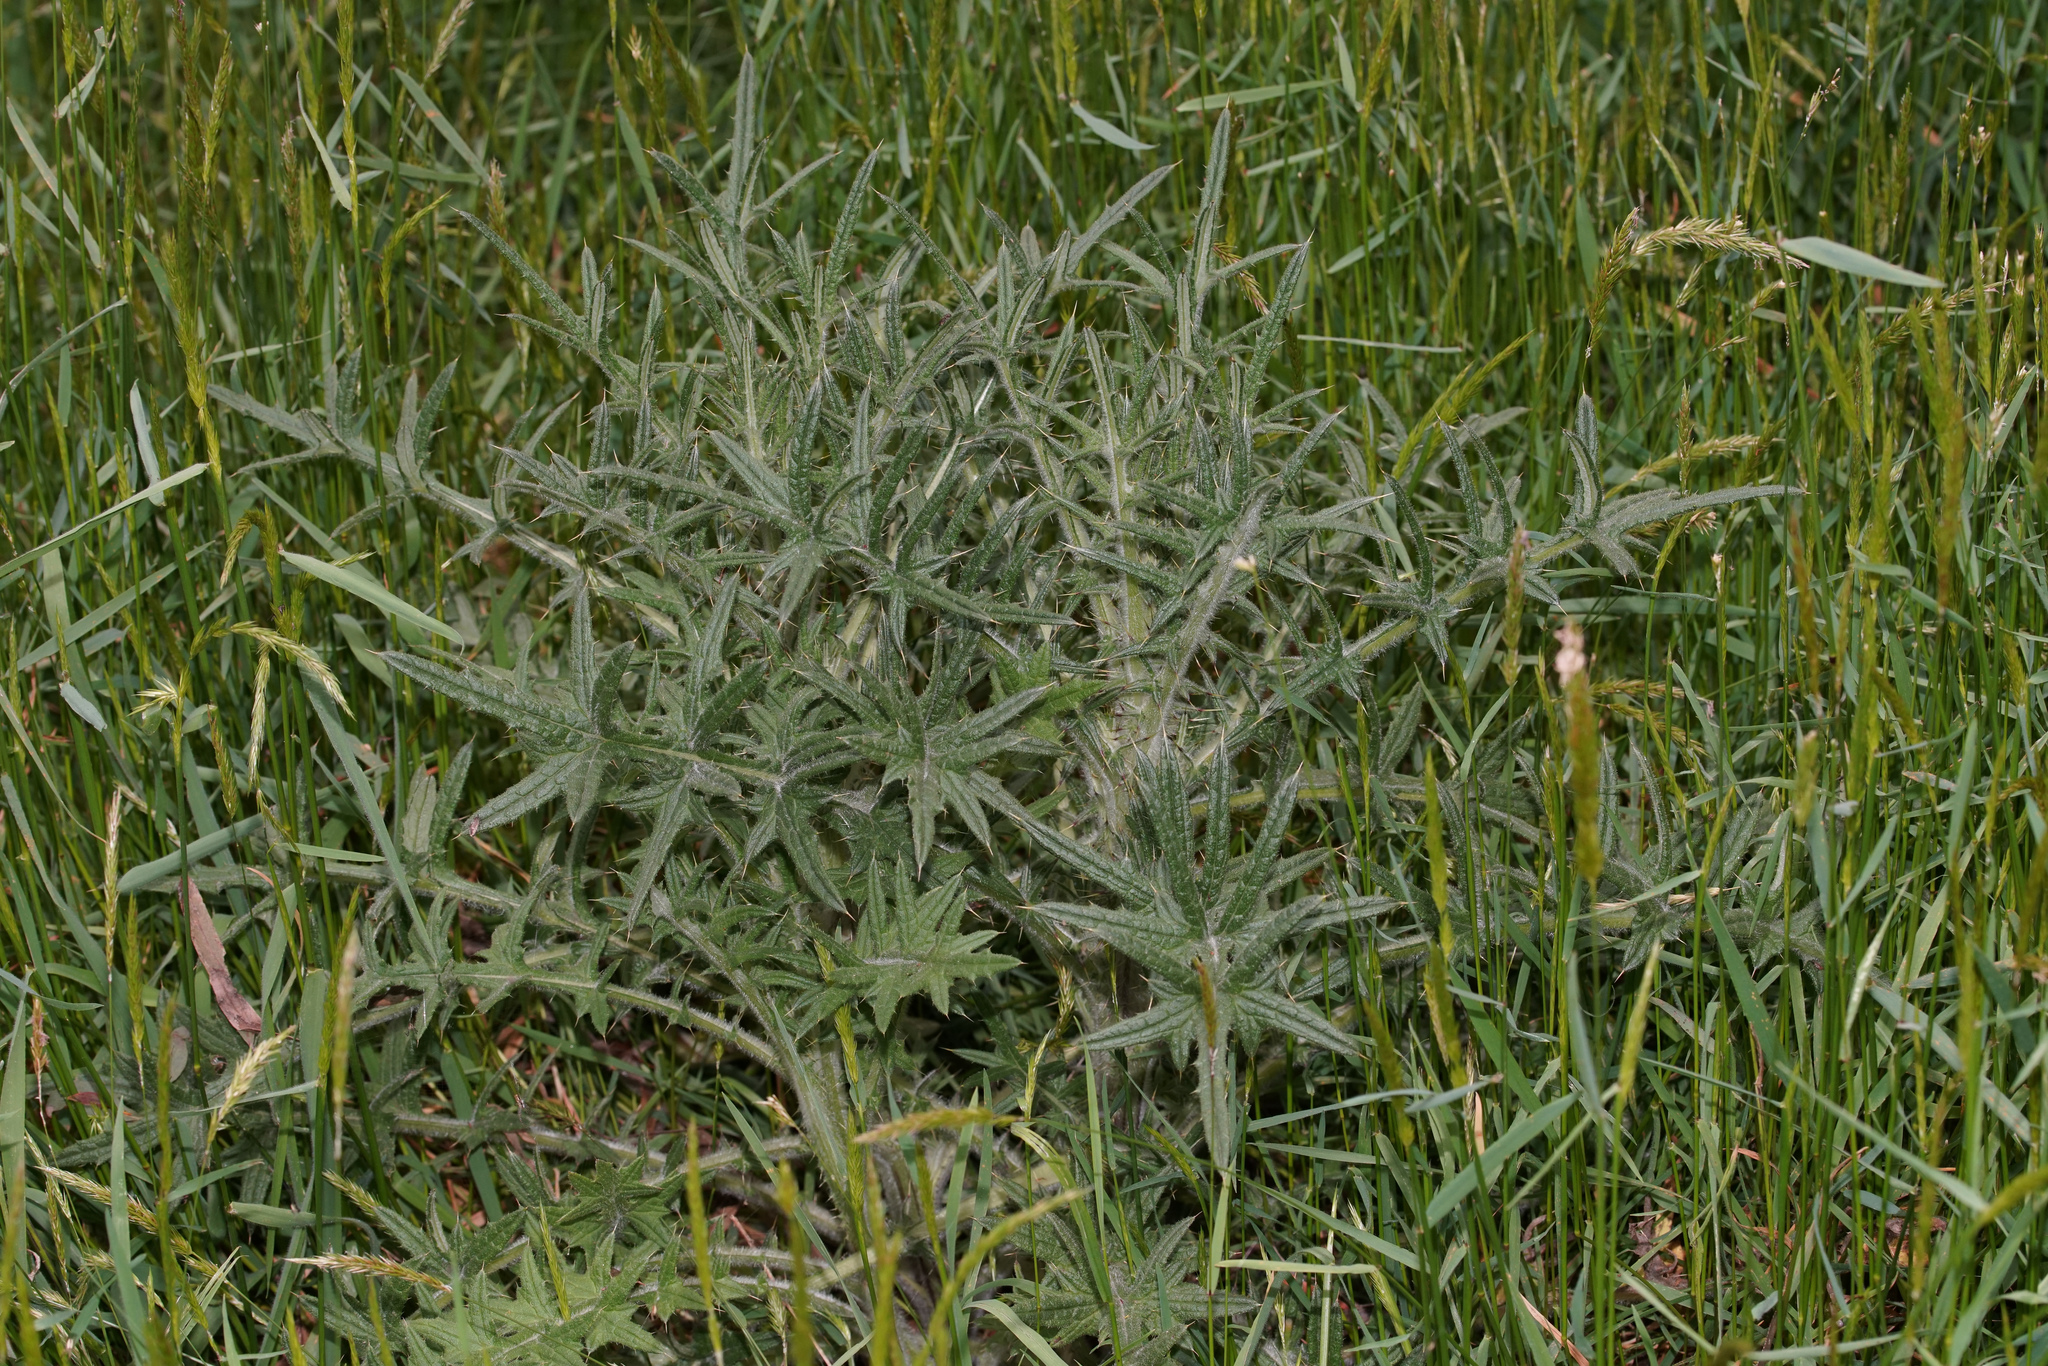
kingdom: Plantae
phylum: Tracheophyta
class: Magnoliopsida
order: Asterales
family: Asteraceae
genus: Cirsium
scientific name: Cirsium vulgare
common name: Bull thistle
